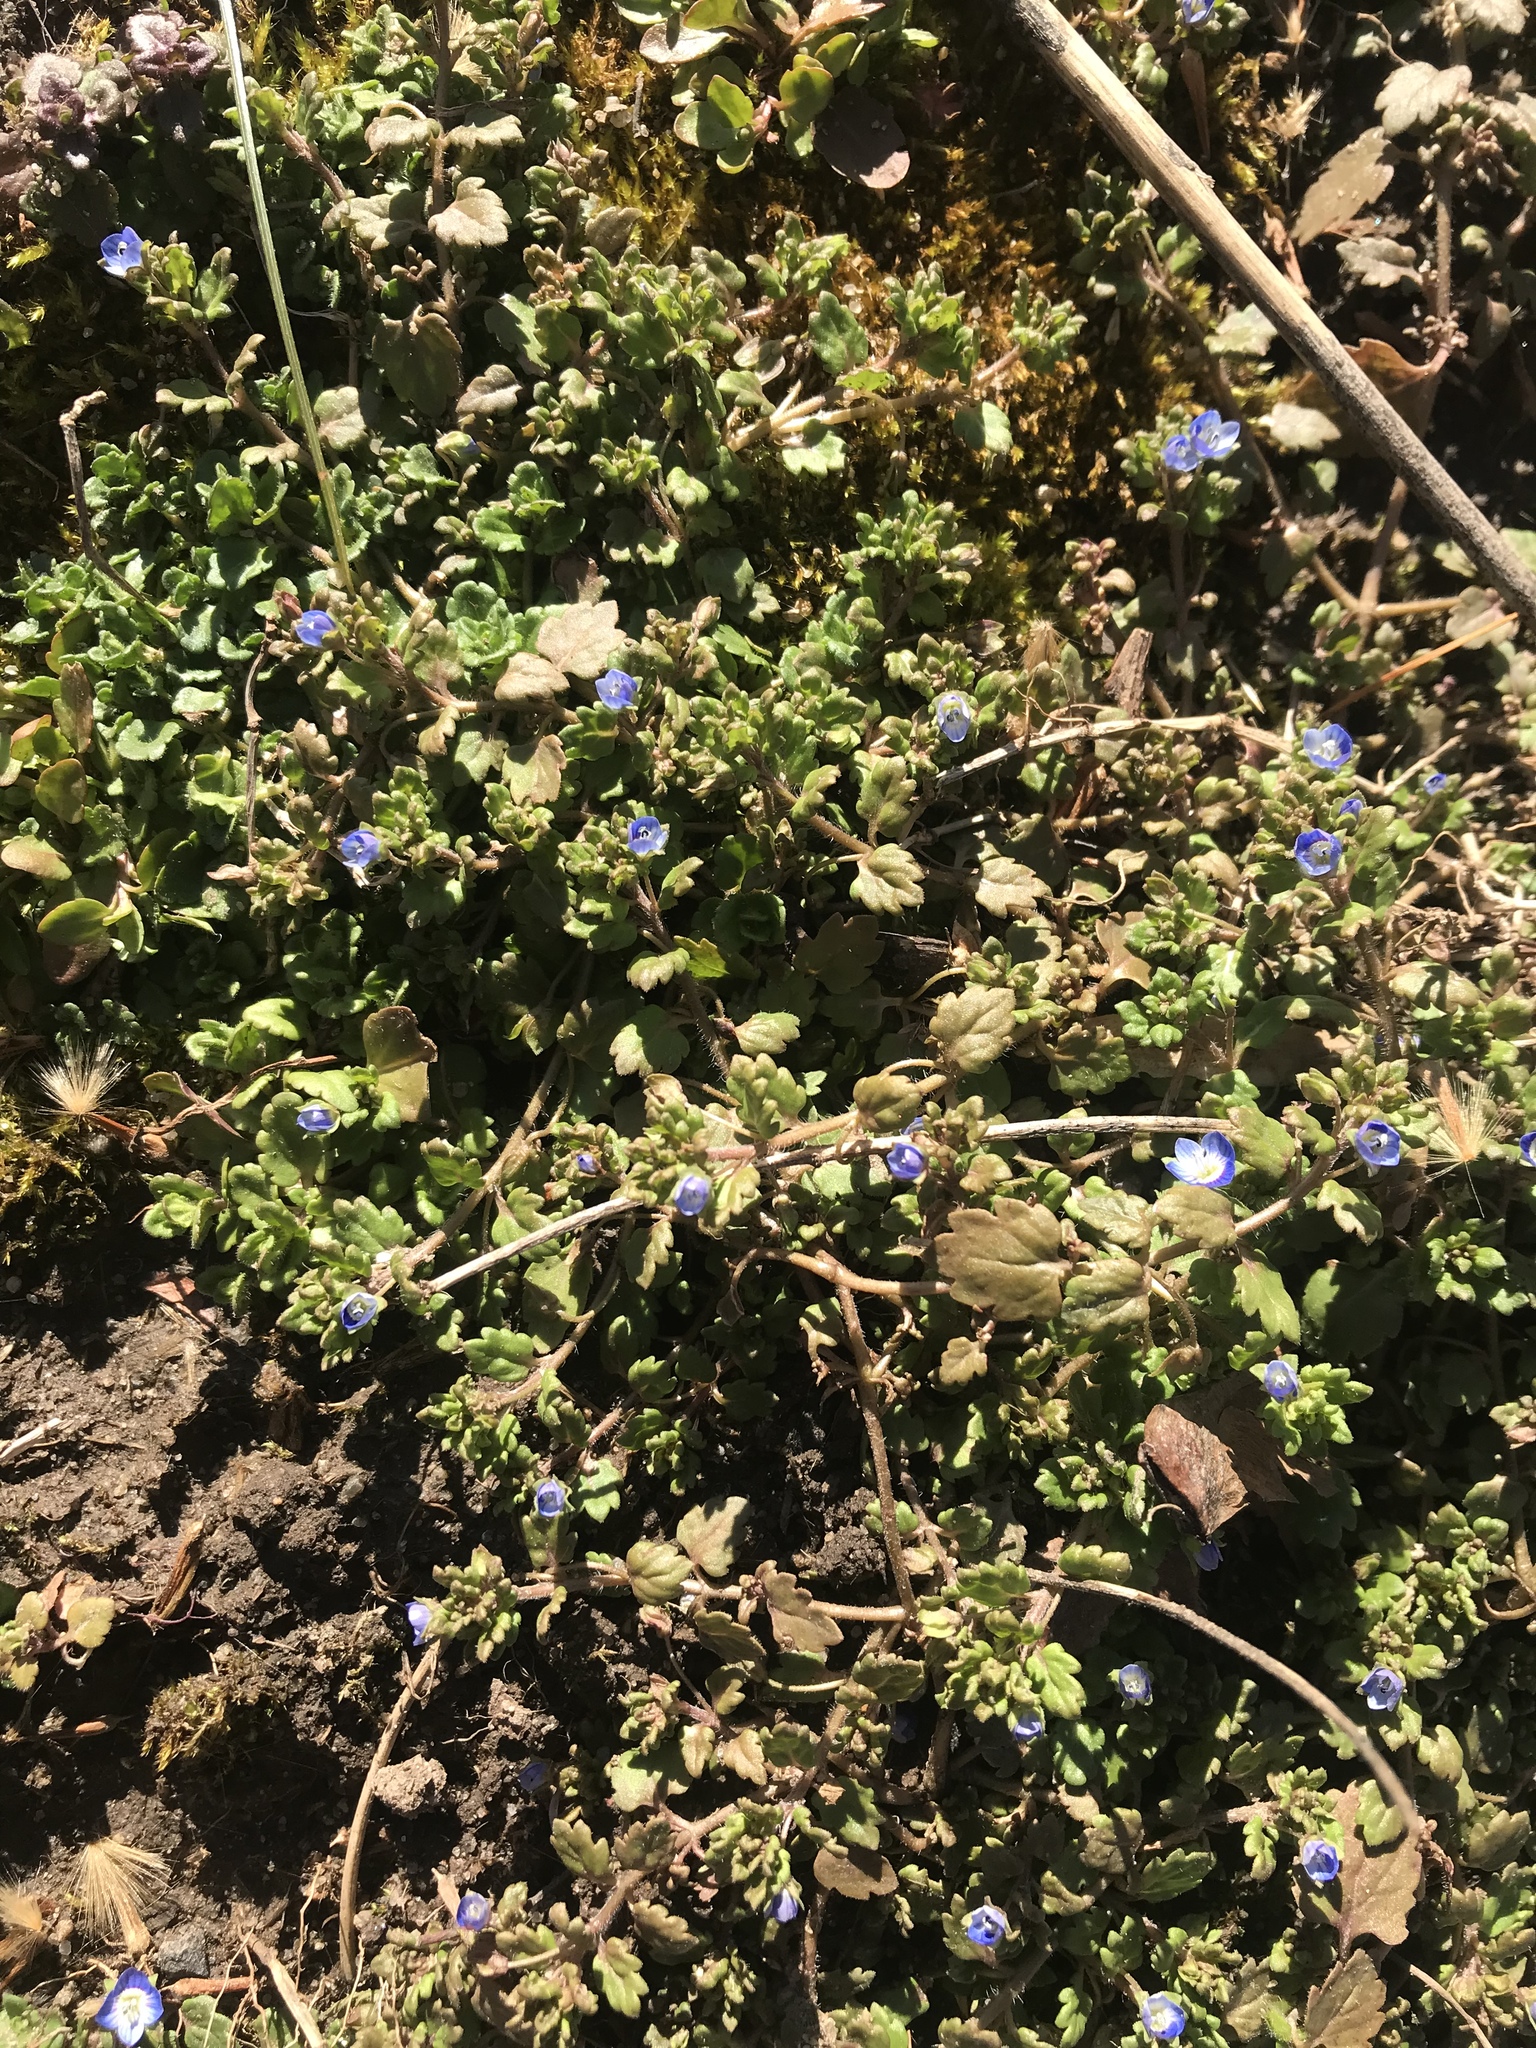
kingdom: Plantae
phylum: Tracheophyta
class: Magnoliopsida
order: Lamiales
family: Plantaginaceae
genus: Veronica
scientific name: Veronica polita
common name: Grey field-speedwell
